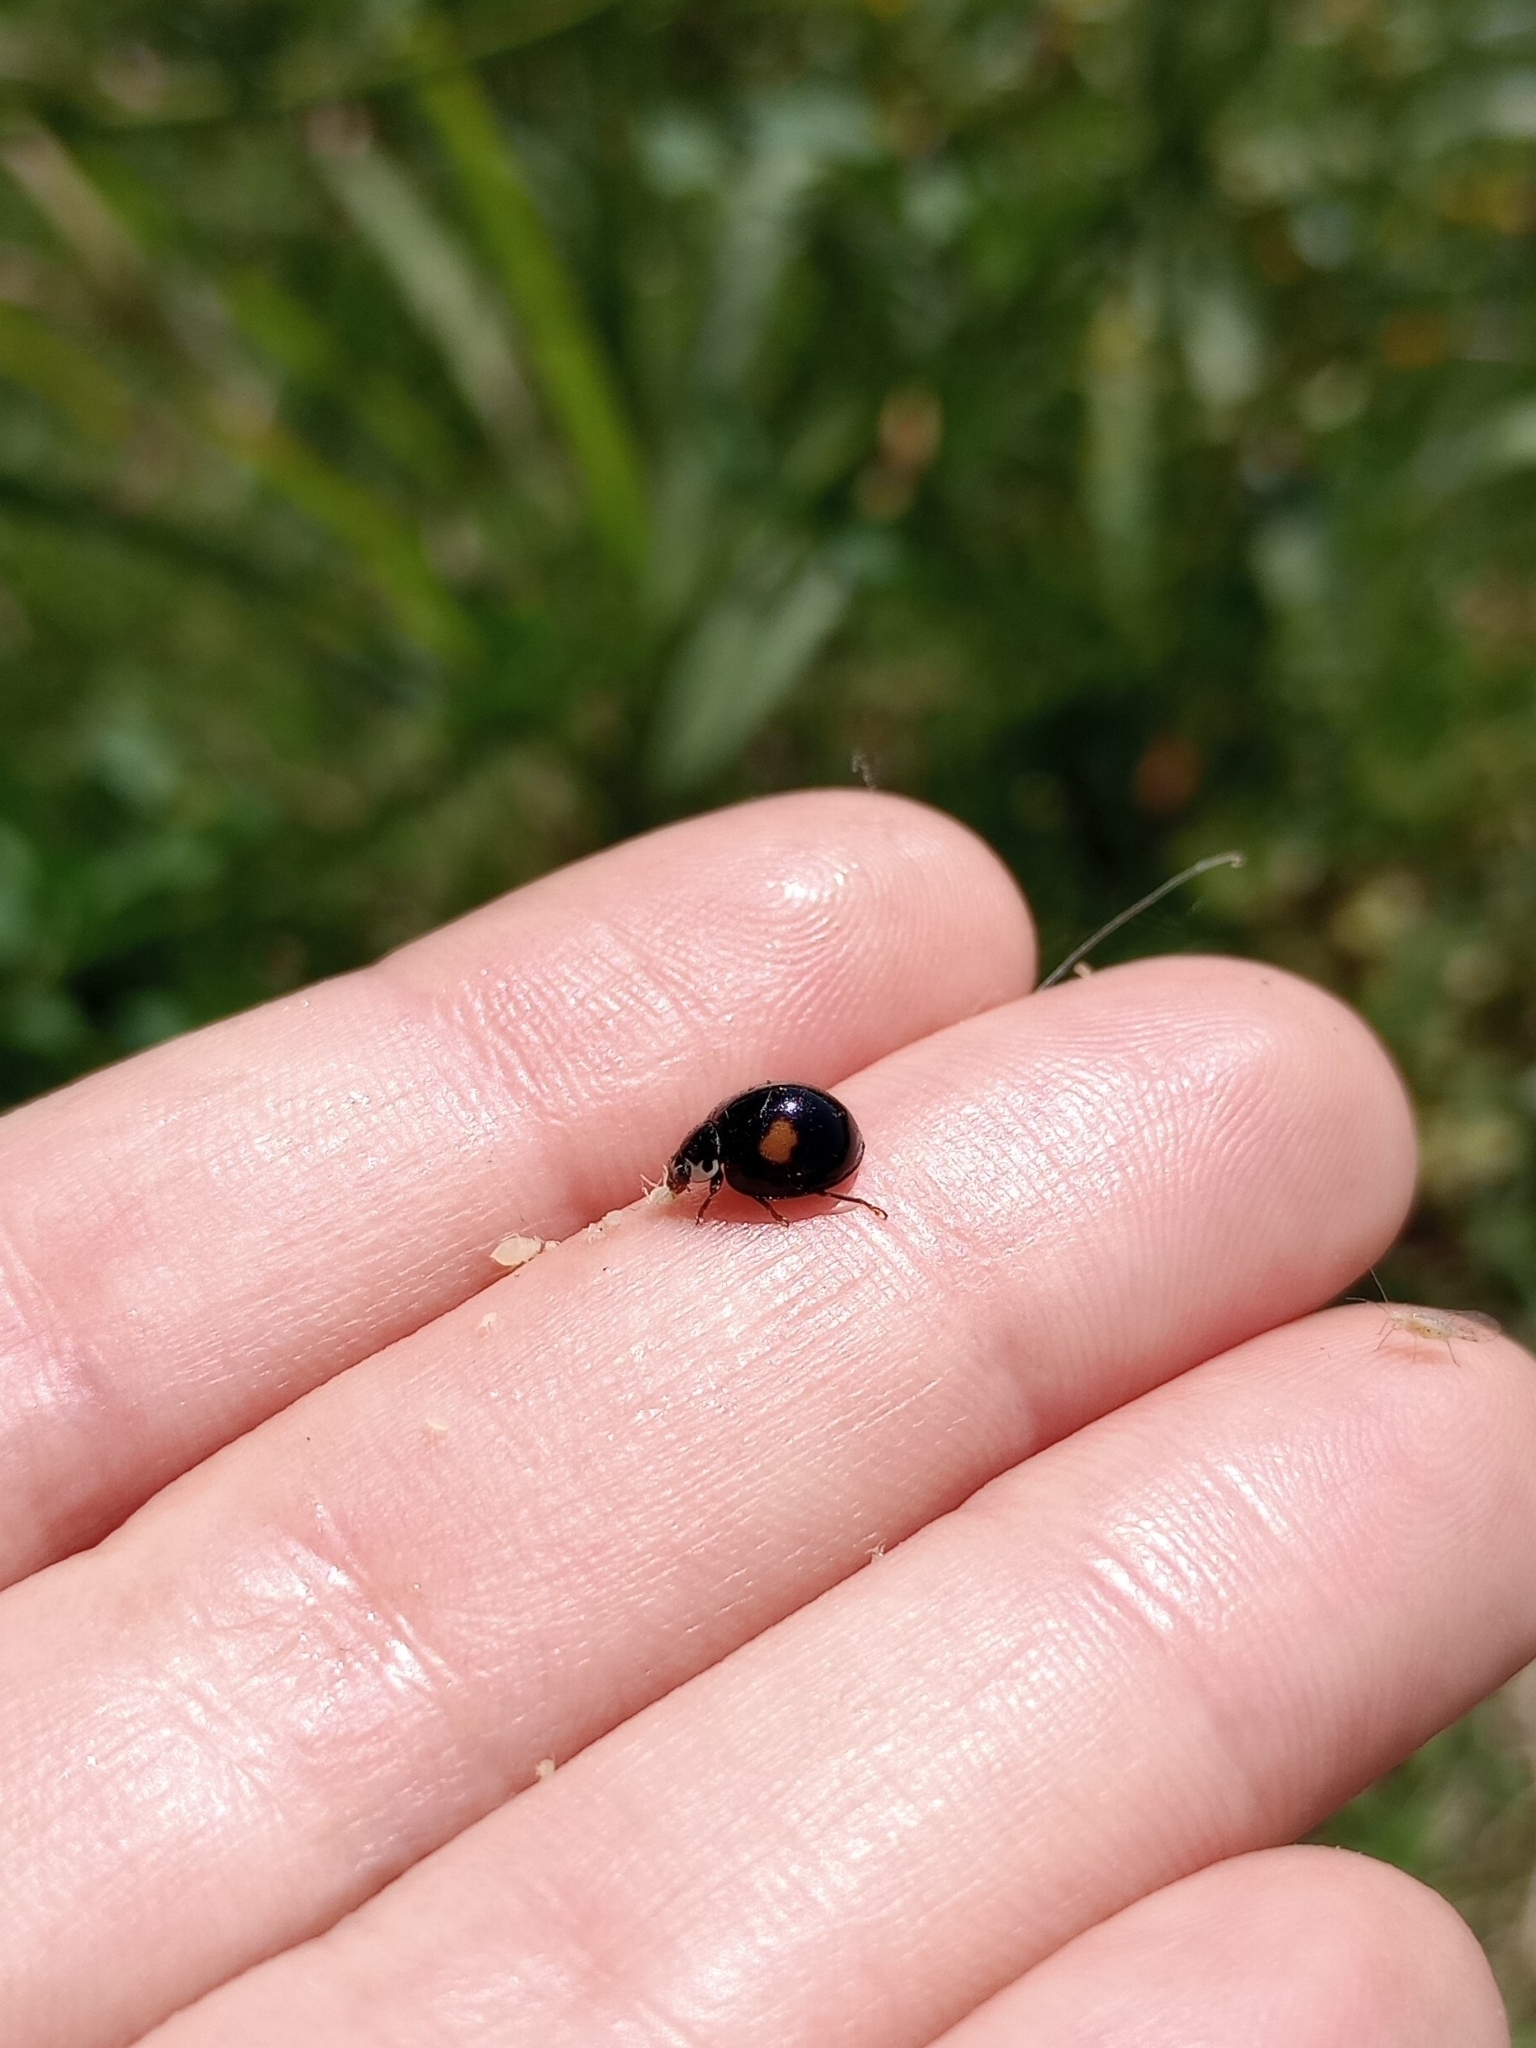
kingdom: Animalia
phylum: Arthropoda
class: Insecta
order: Coleoptera
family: Coccinellidae
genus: Olla
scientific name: Olla v-nigrum
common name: Ashy gray lady beetle
